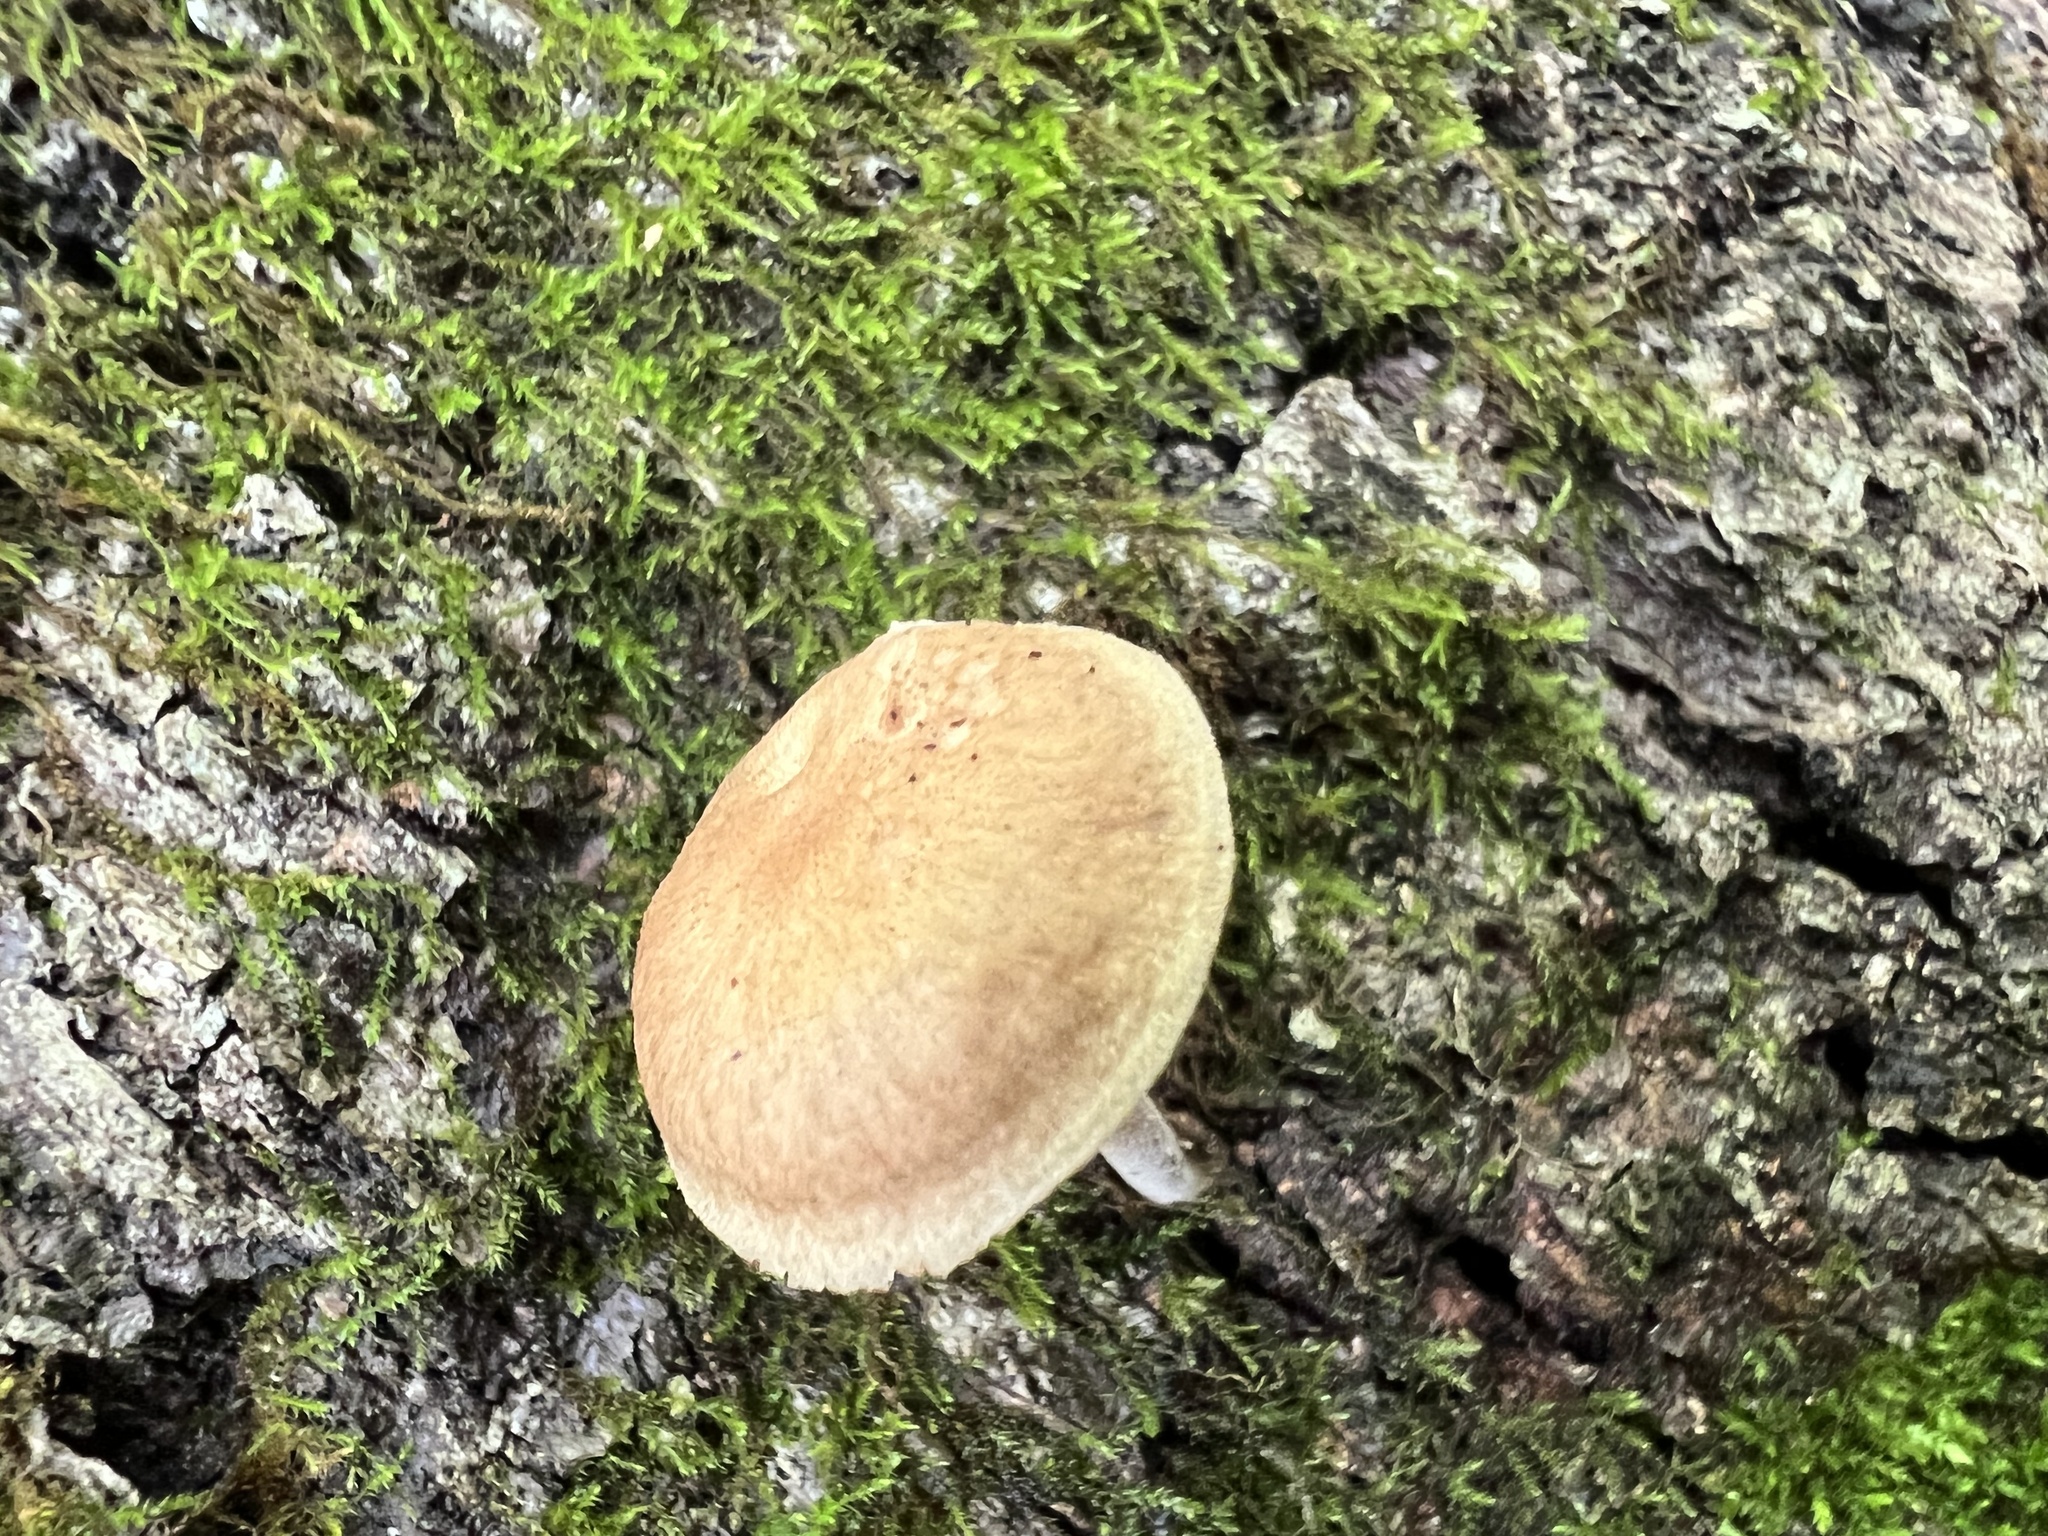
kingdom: Fungi
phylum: Basidiomycota
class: Agaricomycetes
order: Agaricales
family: Omphalotaceae
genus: Collybiopsis
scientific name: Collybiopsis dichroa
